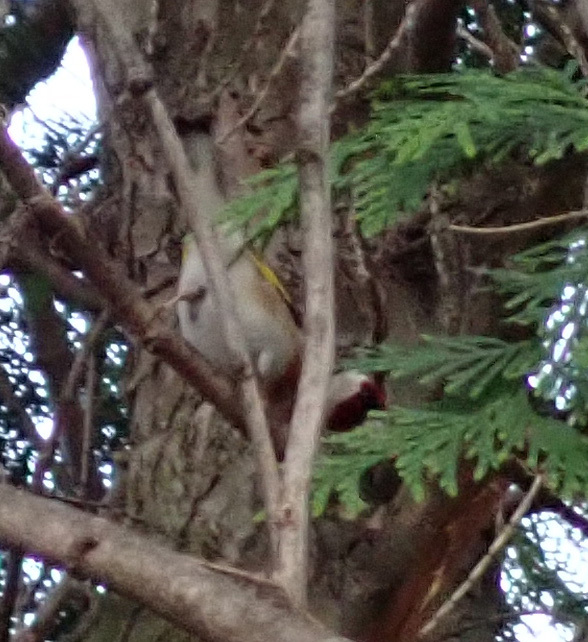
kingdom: Animalia
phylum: Chordata
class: Aves
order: Passeriformes
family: Fringillidae
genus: Carduelis
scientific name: Carduelis carduelis
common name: European goldfinch
